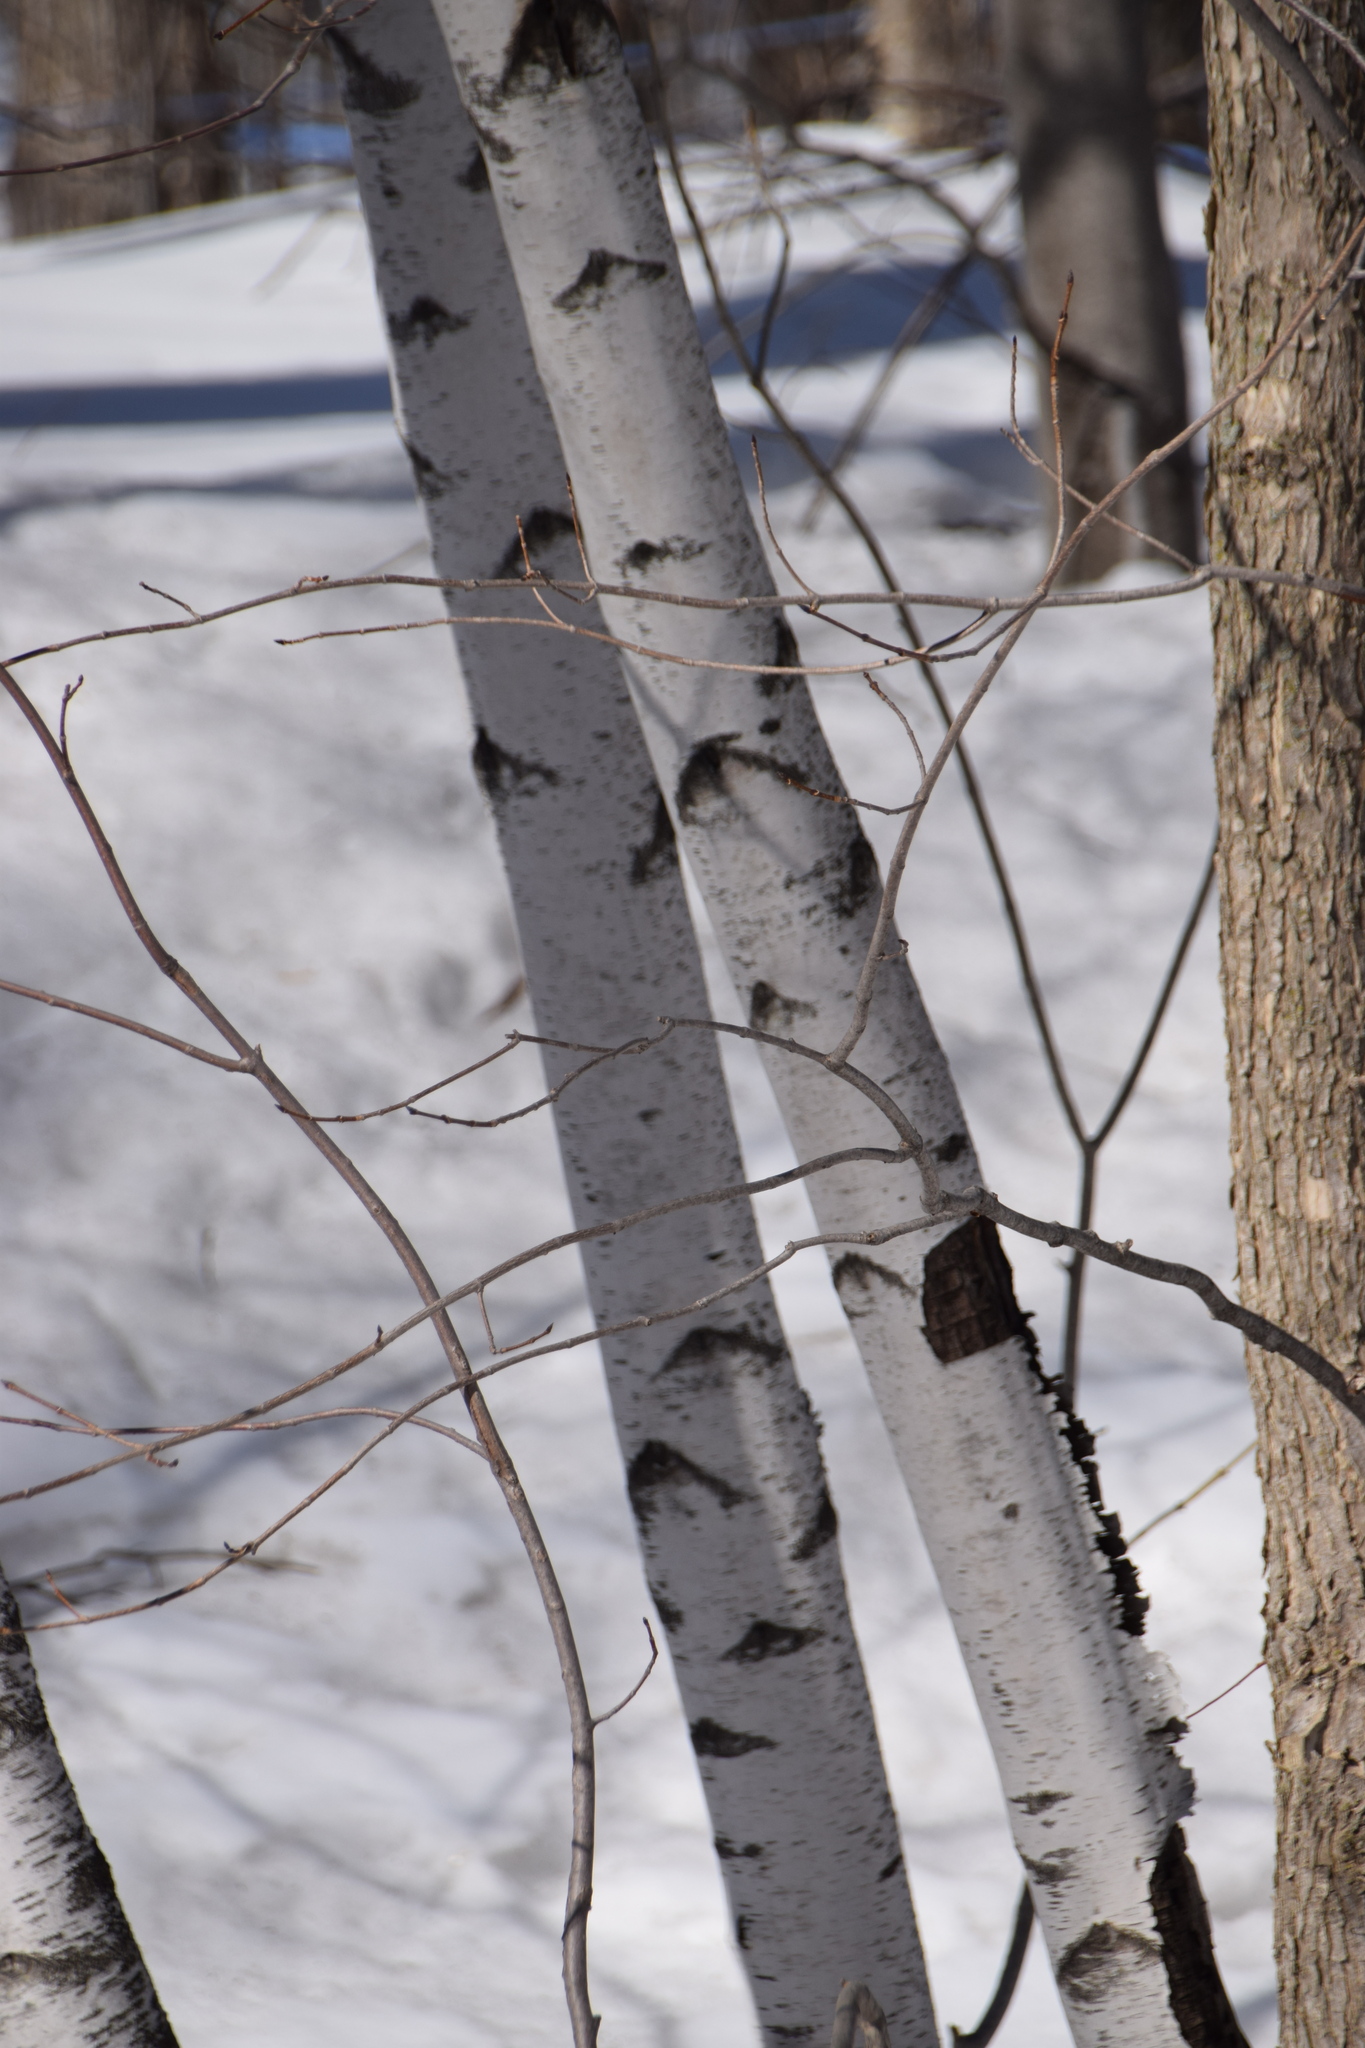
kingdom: Plantae
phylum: Tracheophyta
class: Magnoliopsida
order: Fagales
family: Betulaceae
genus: Betula
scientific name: Betula populifolia
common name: Fire birch
